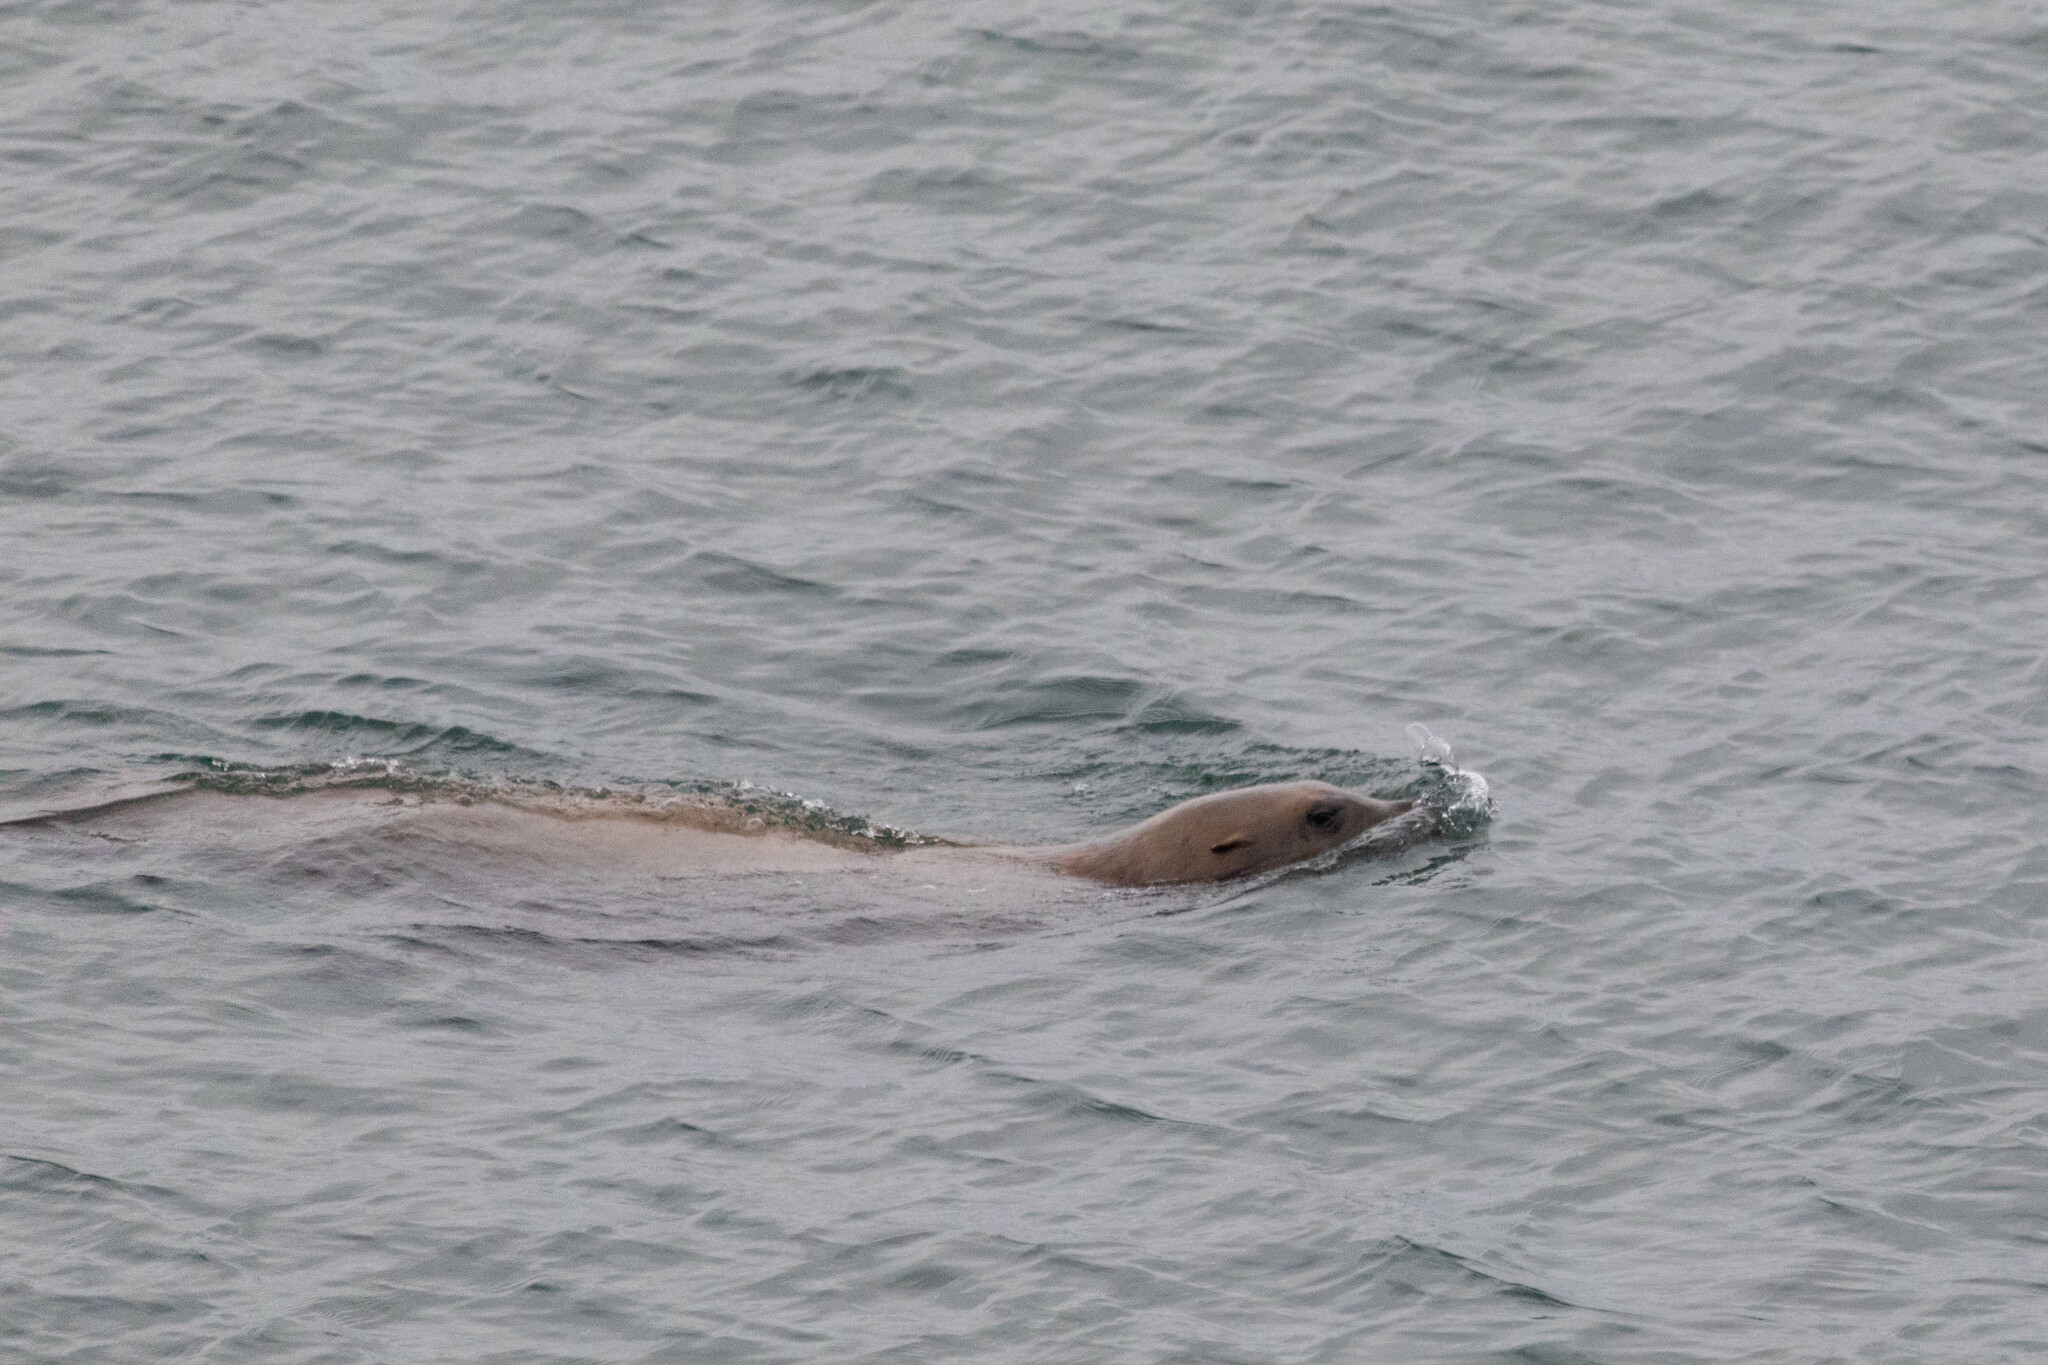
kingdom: Animalia
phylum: Chordata
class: Mammalia
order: Carnivora
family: Otariidae
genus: Eumetopias
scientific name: Eumetopias jubatus
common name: Steller sea lion
